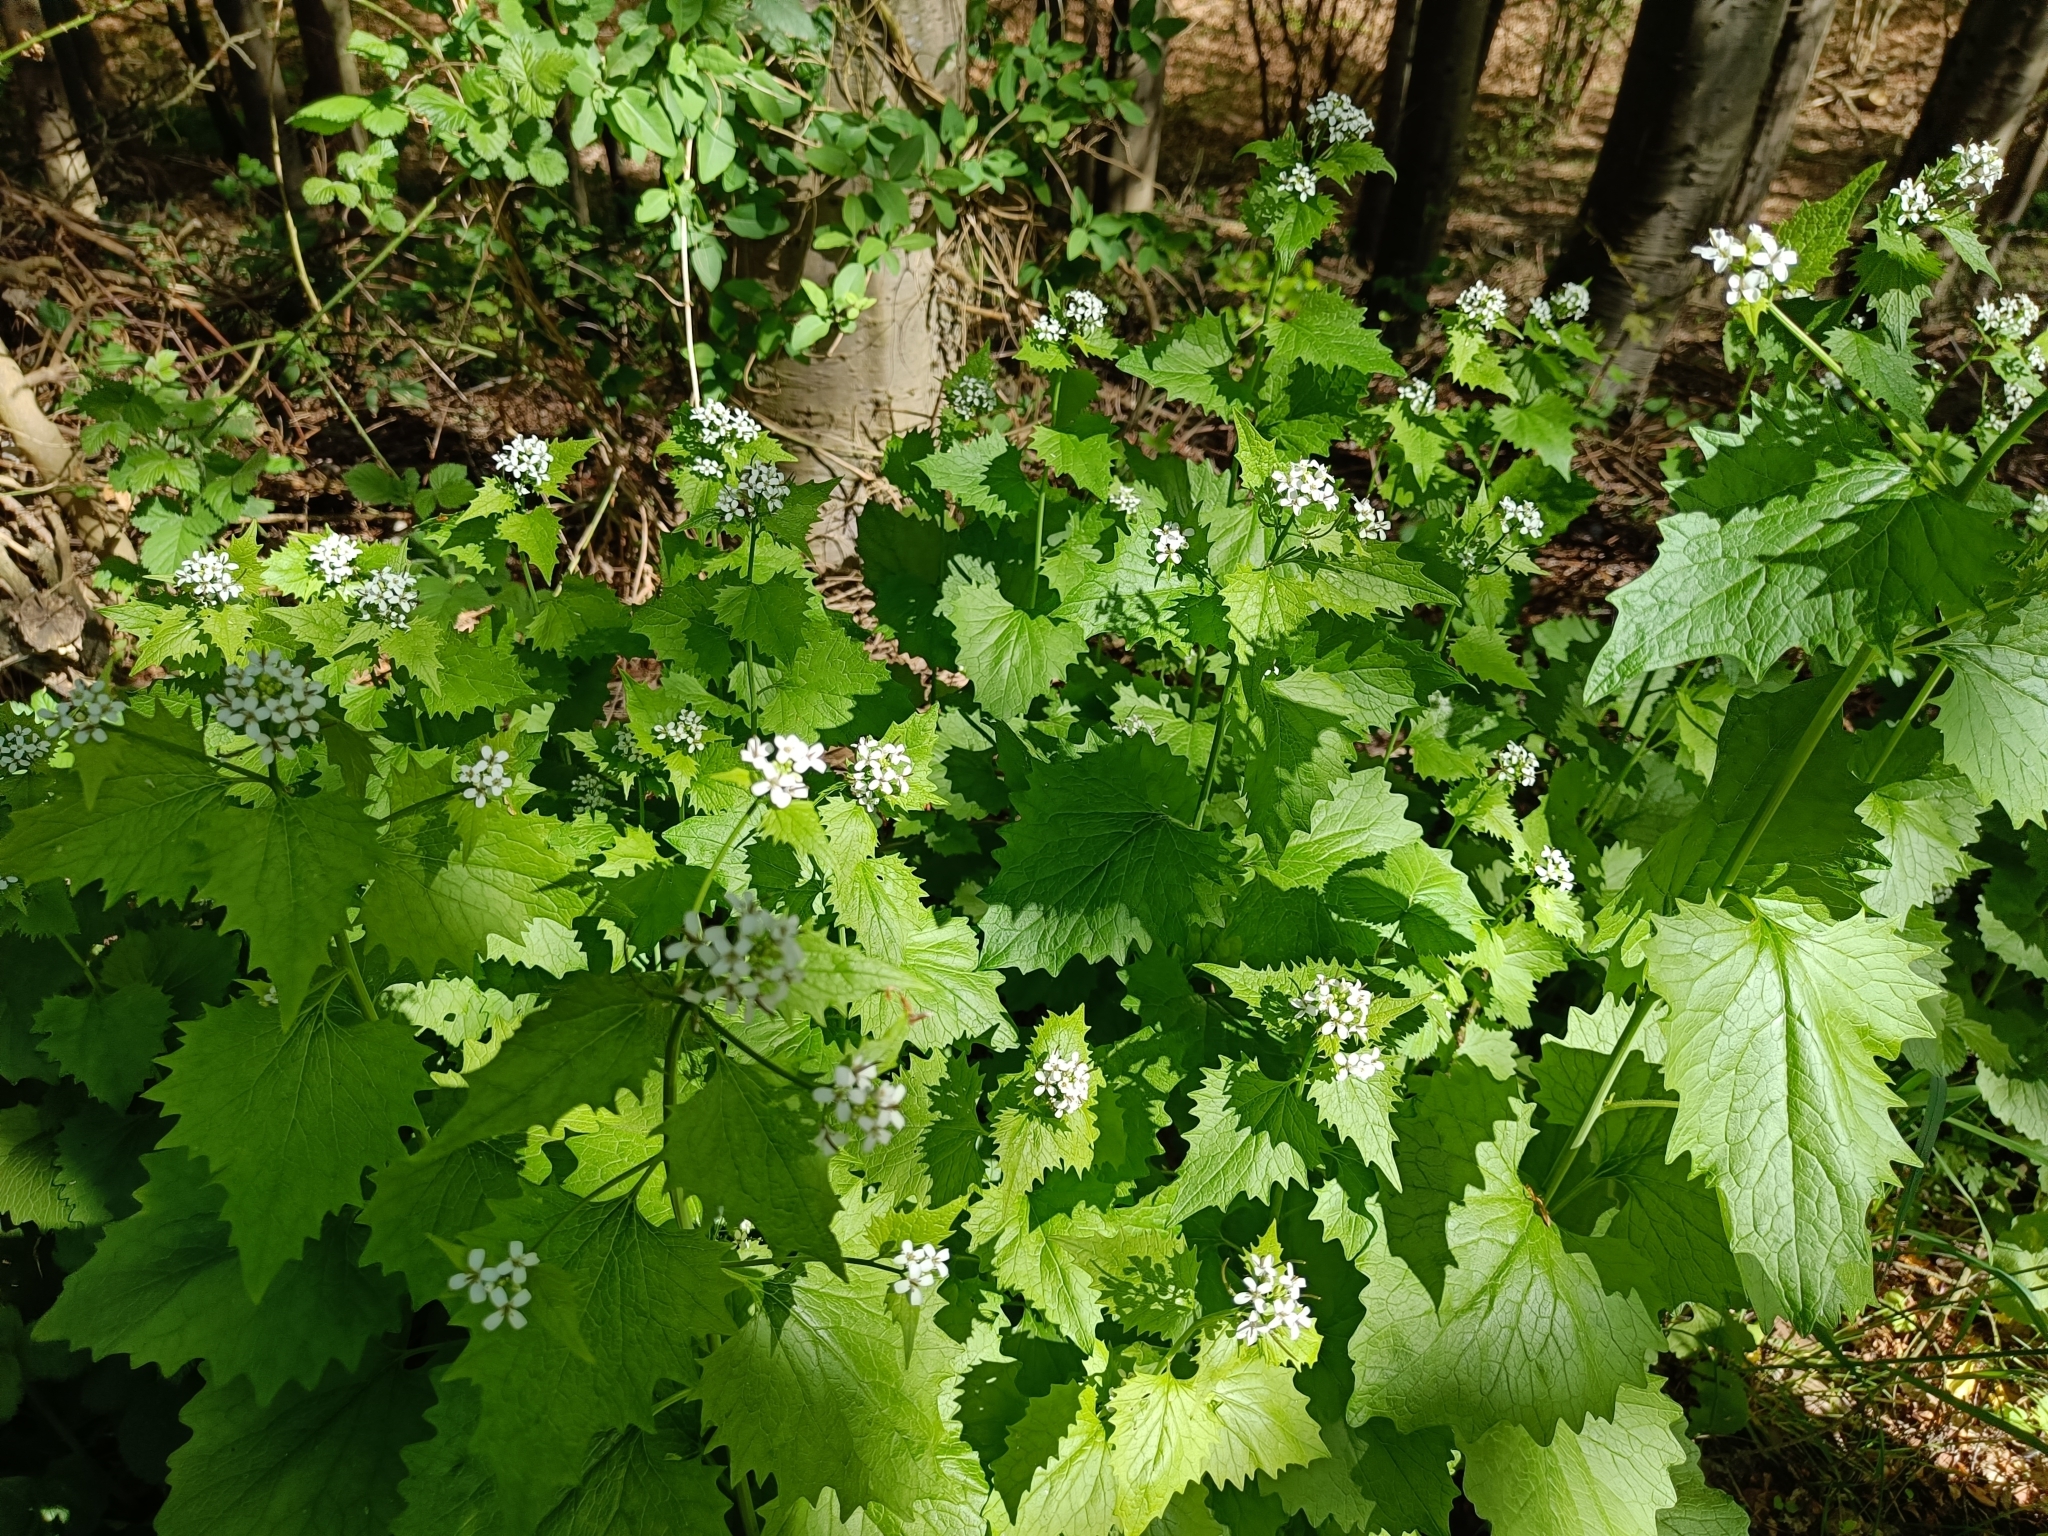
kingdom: Plantae
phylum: Tracheophyta
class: Magnoliopsida
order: Brassicales
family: Brassicaceae
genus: Alliaria
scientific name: Alliaria petiolata
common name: Garlic mustard
